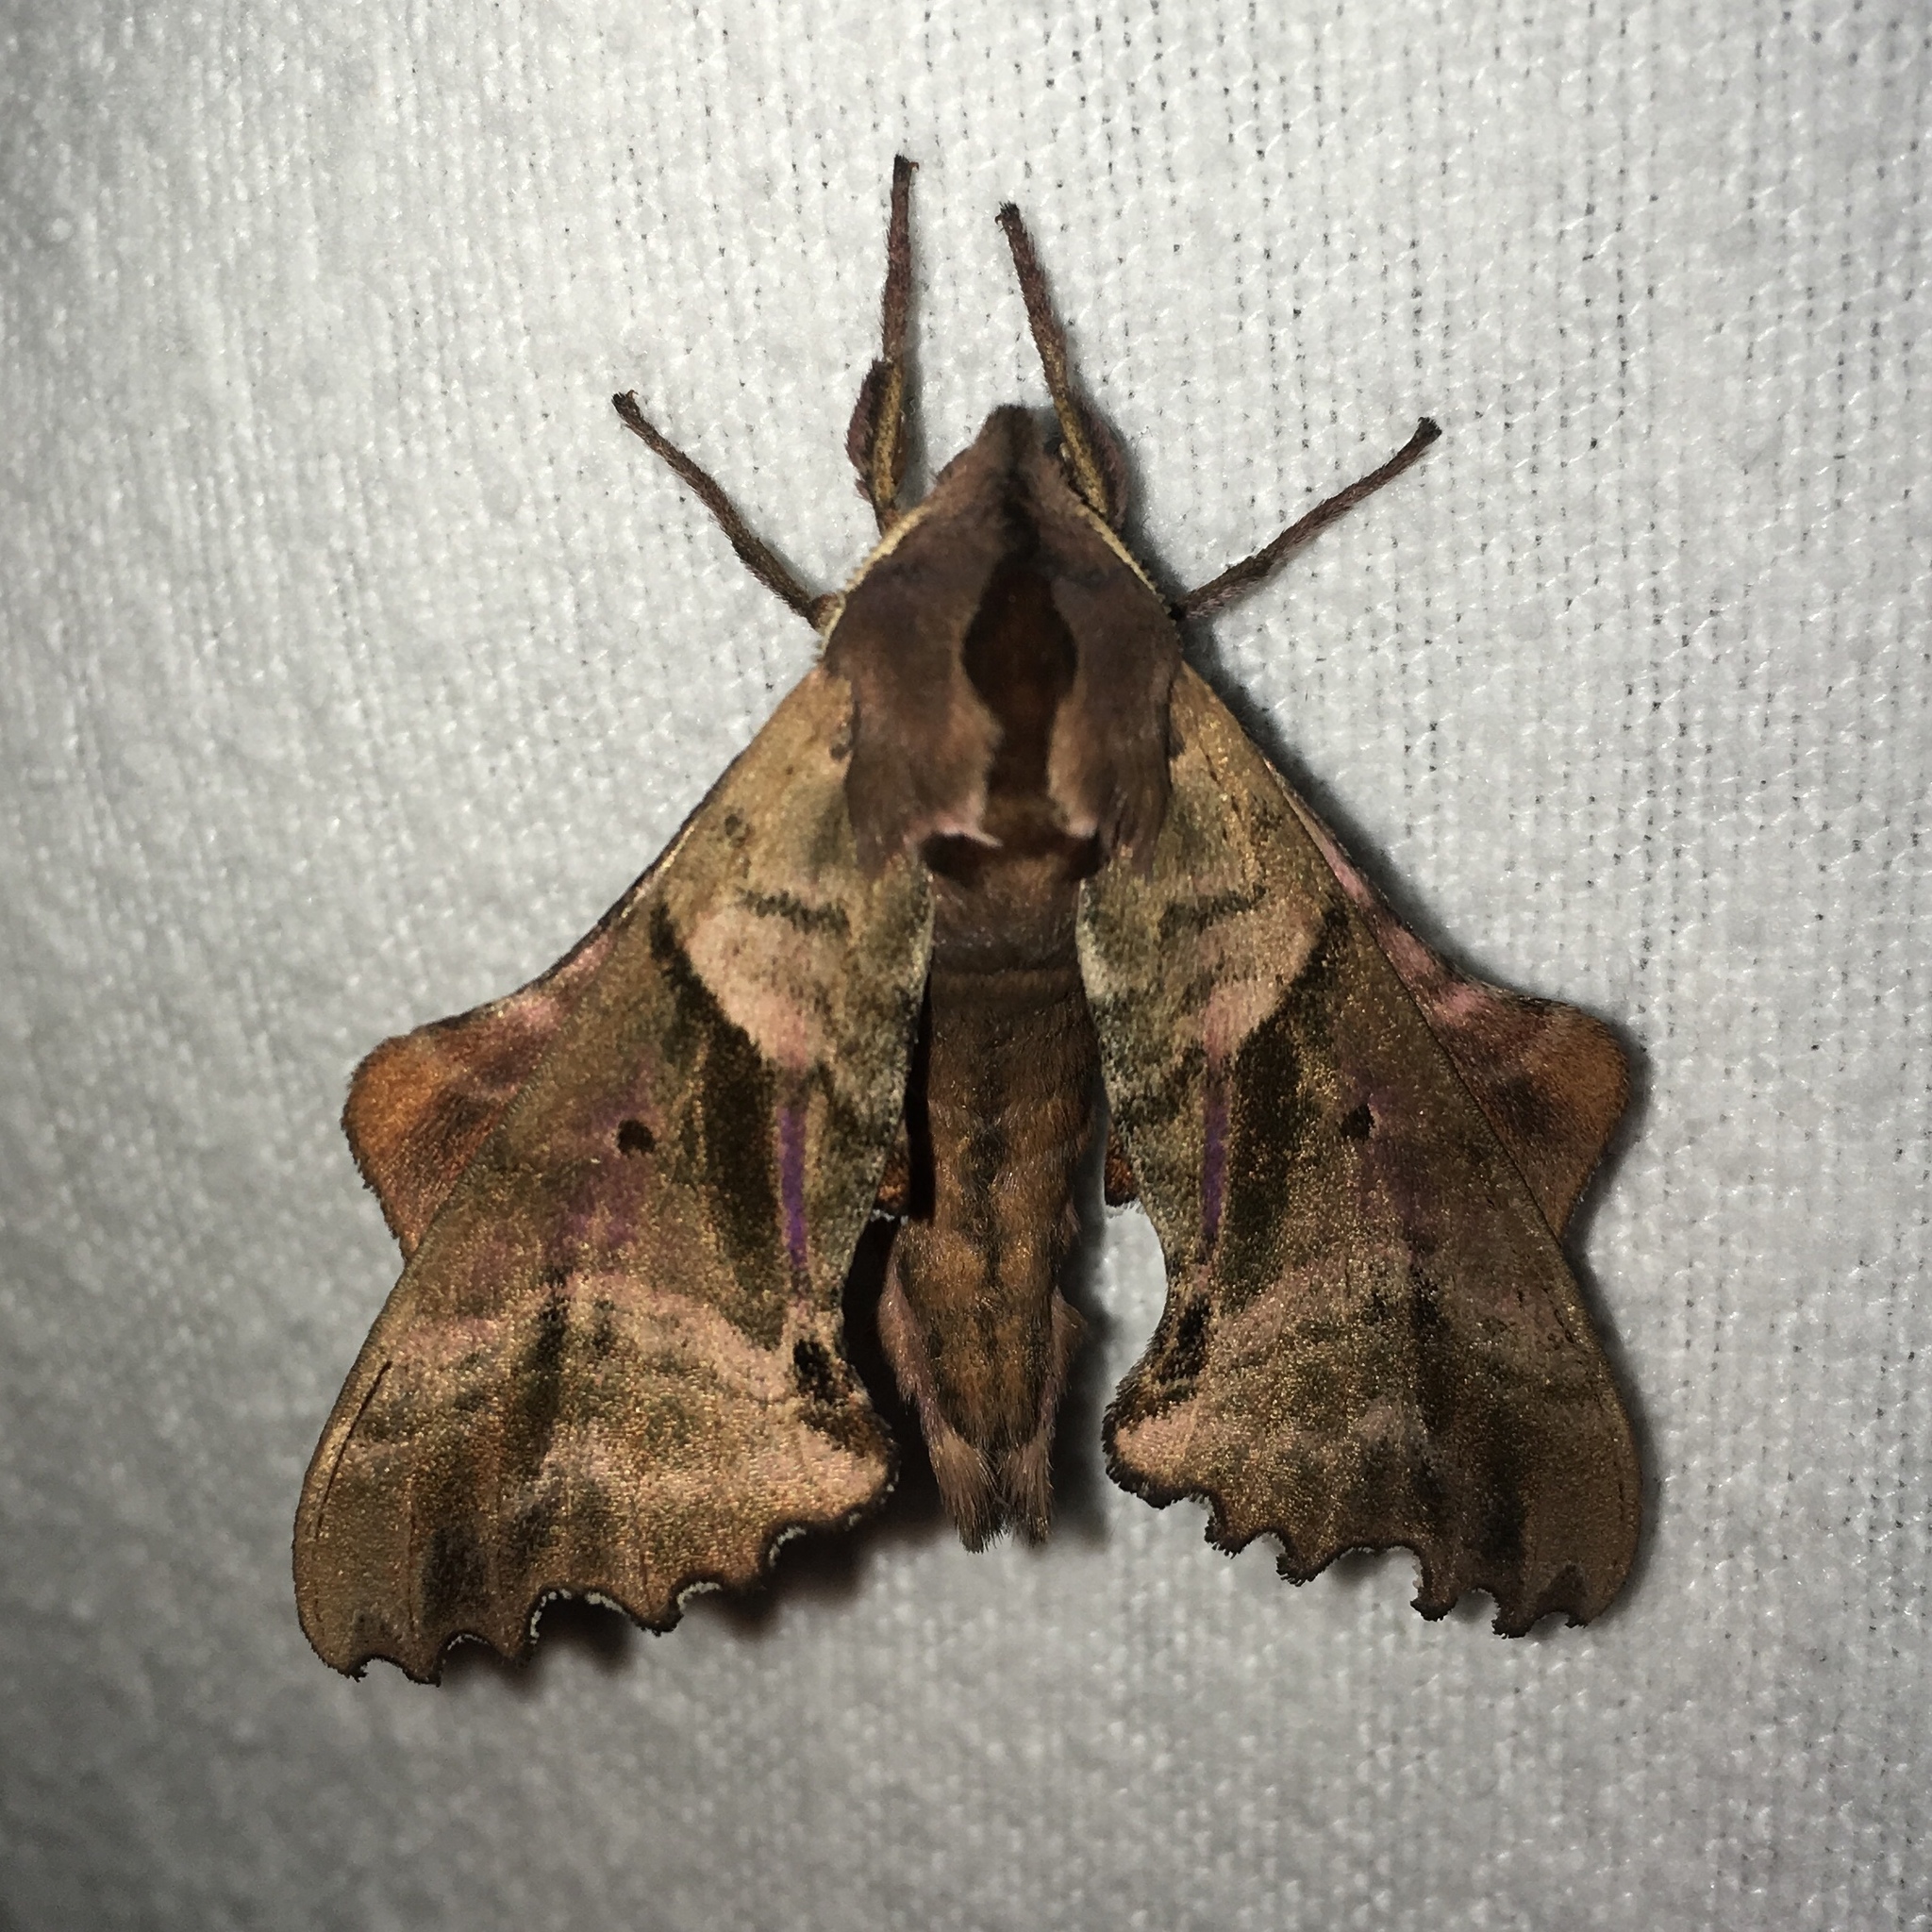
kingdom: Animalia
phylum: Arthropoda
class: Insecta
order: Lepidoptera
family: Sphingidae
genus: Paonias
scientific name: Paonias excaecata
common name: Blind-eyed sphinx
